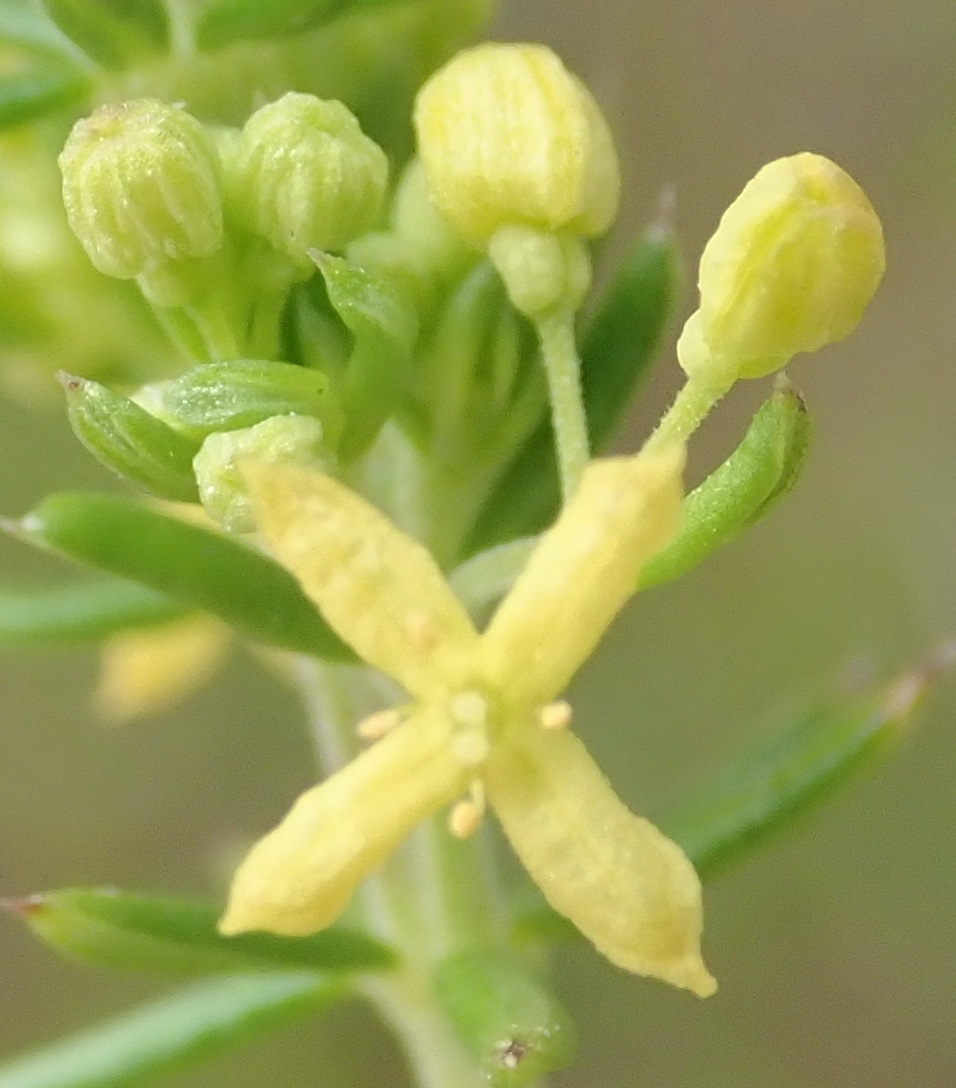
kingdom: Plantae
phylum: Tracheophyta
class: Magnoliopsida
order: Gentianales
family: Rubiaceae
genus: Galium
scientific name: Galium capense
